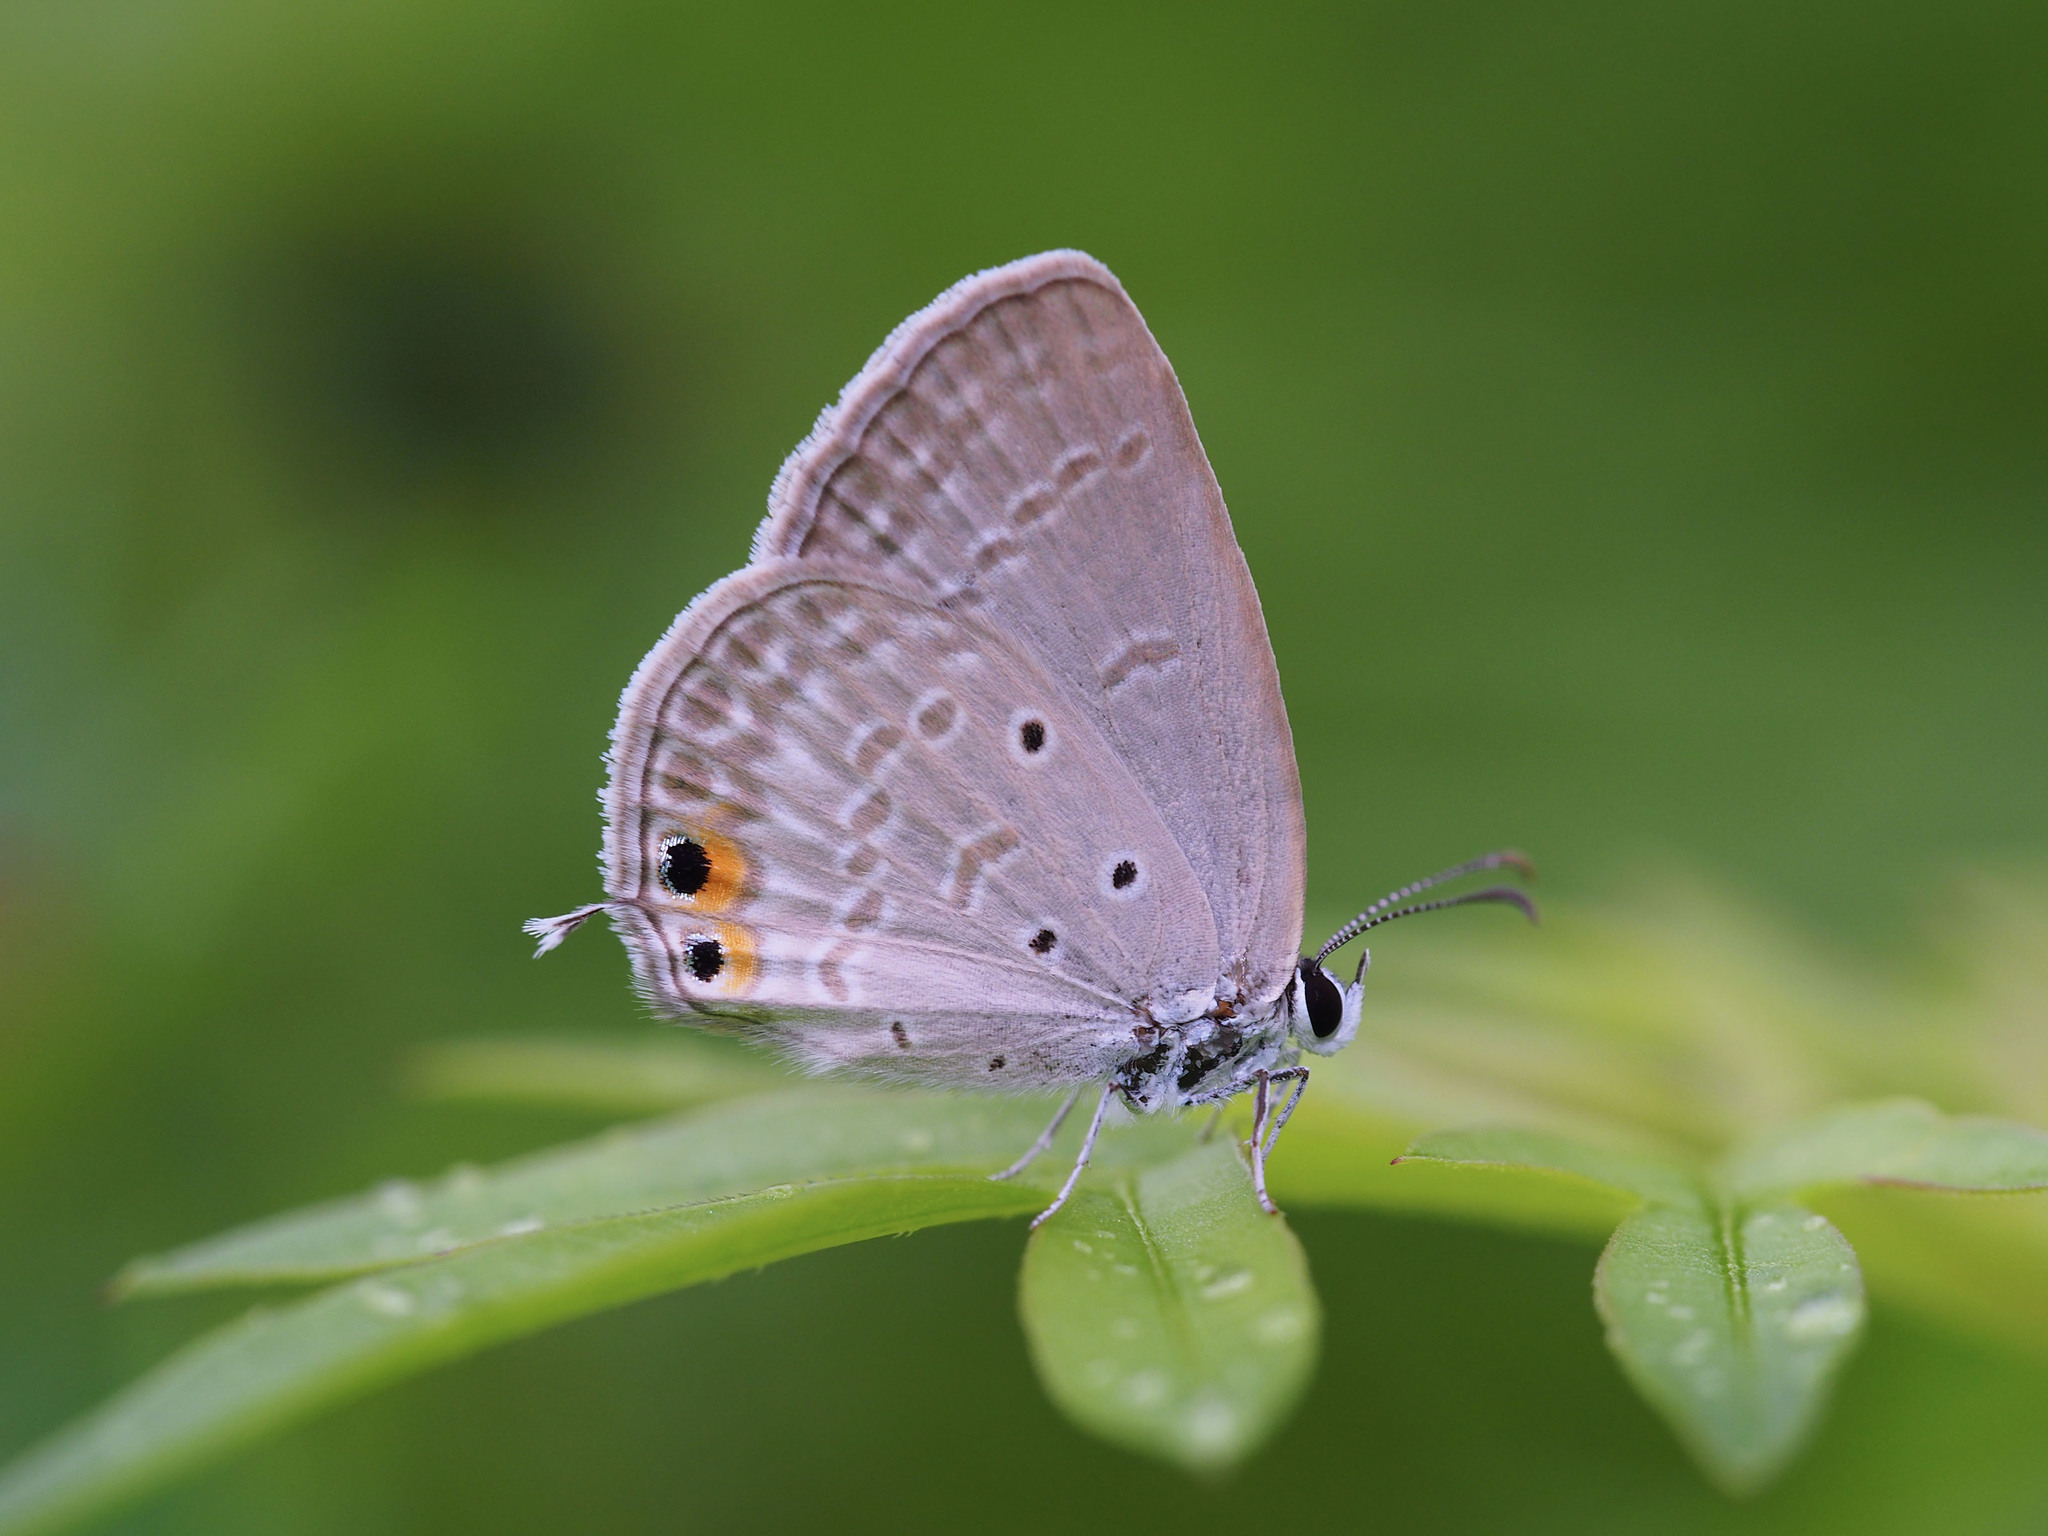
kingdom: Animalia
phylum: Arthropoda
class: Insecta
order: Lepidoptera
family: Lycaenidae
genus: Euchrysops
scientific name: Euchrysops cnejus
